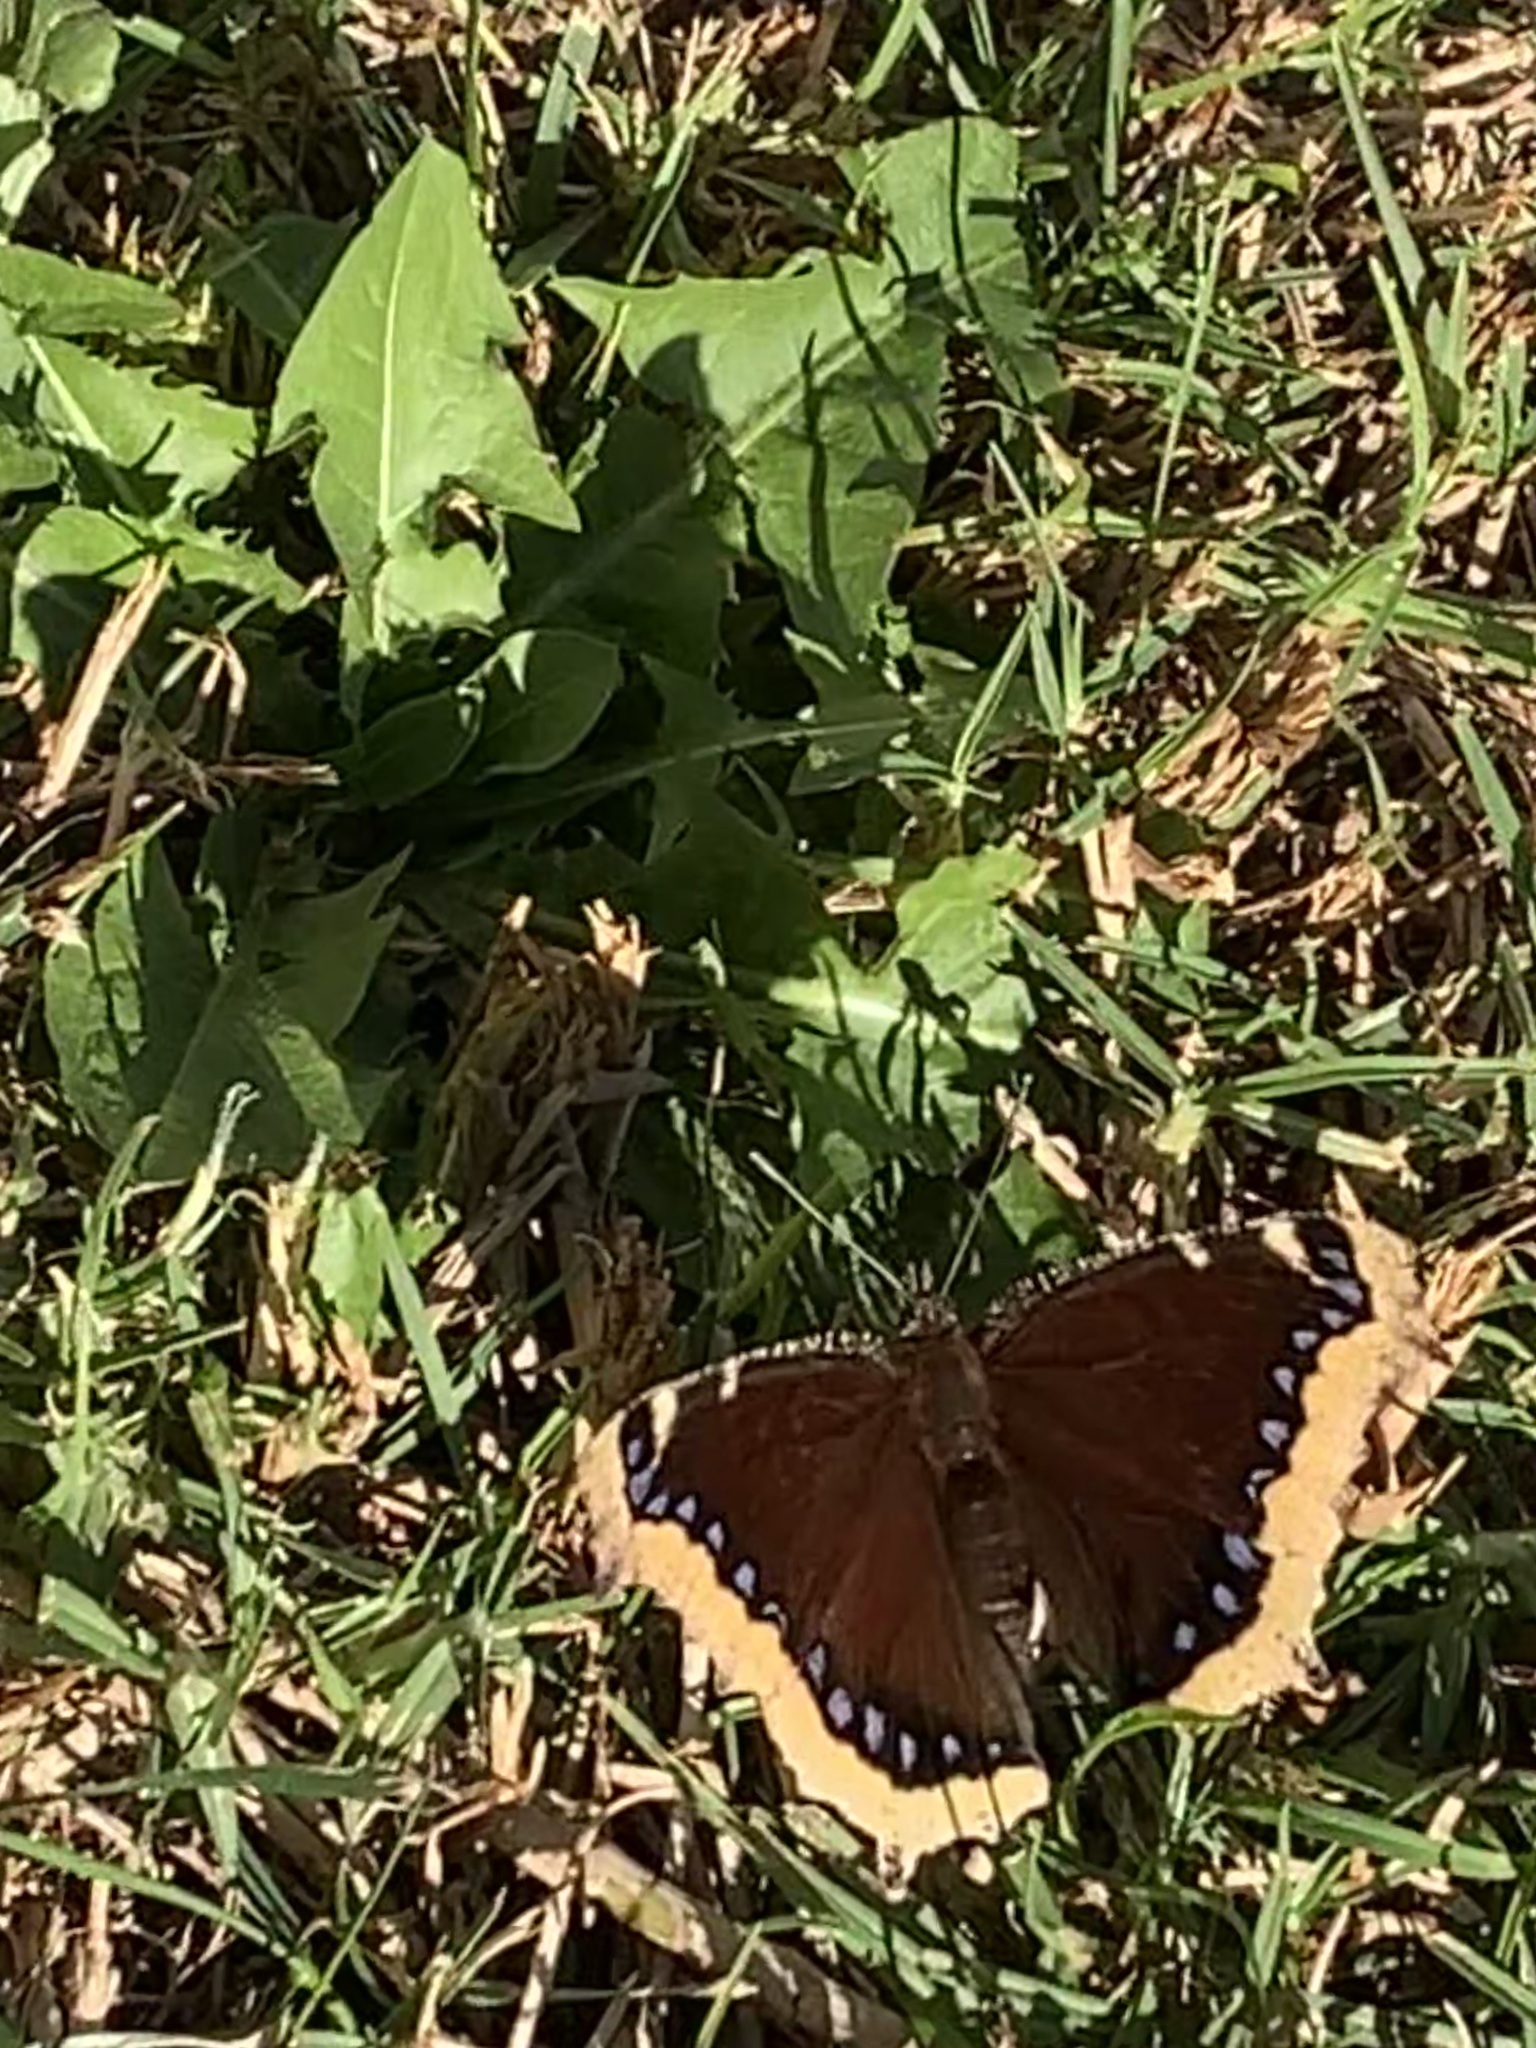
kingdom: Animalia
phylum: Arthropoda
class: Insecta
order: Lepidoptera
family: Nymphalidae
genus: Nymphalis
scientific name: Nymphalis antiopa
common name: Camberwell beauty
